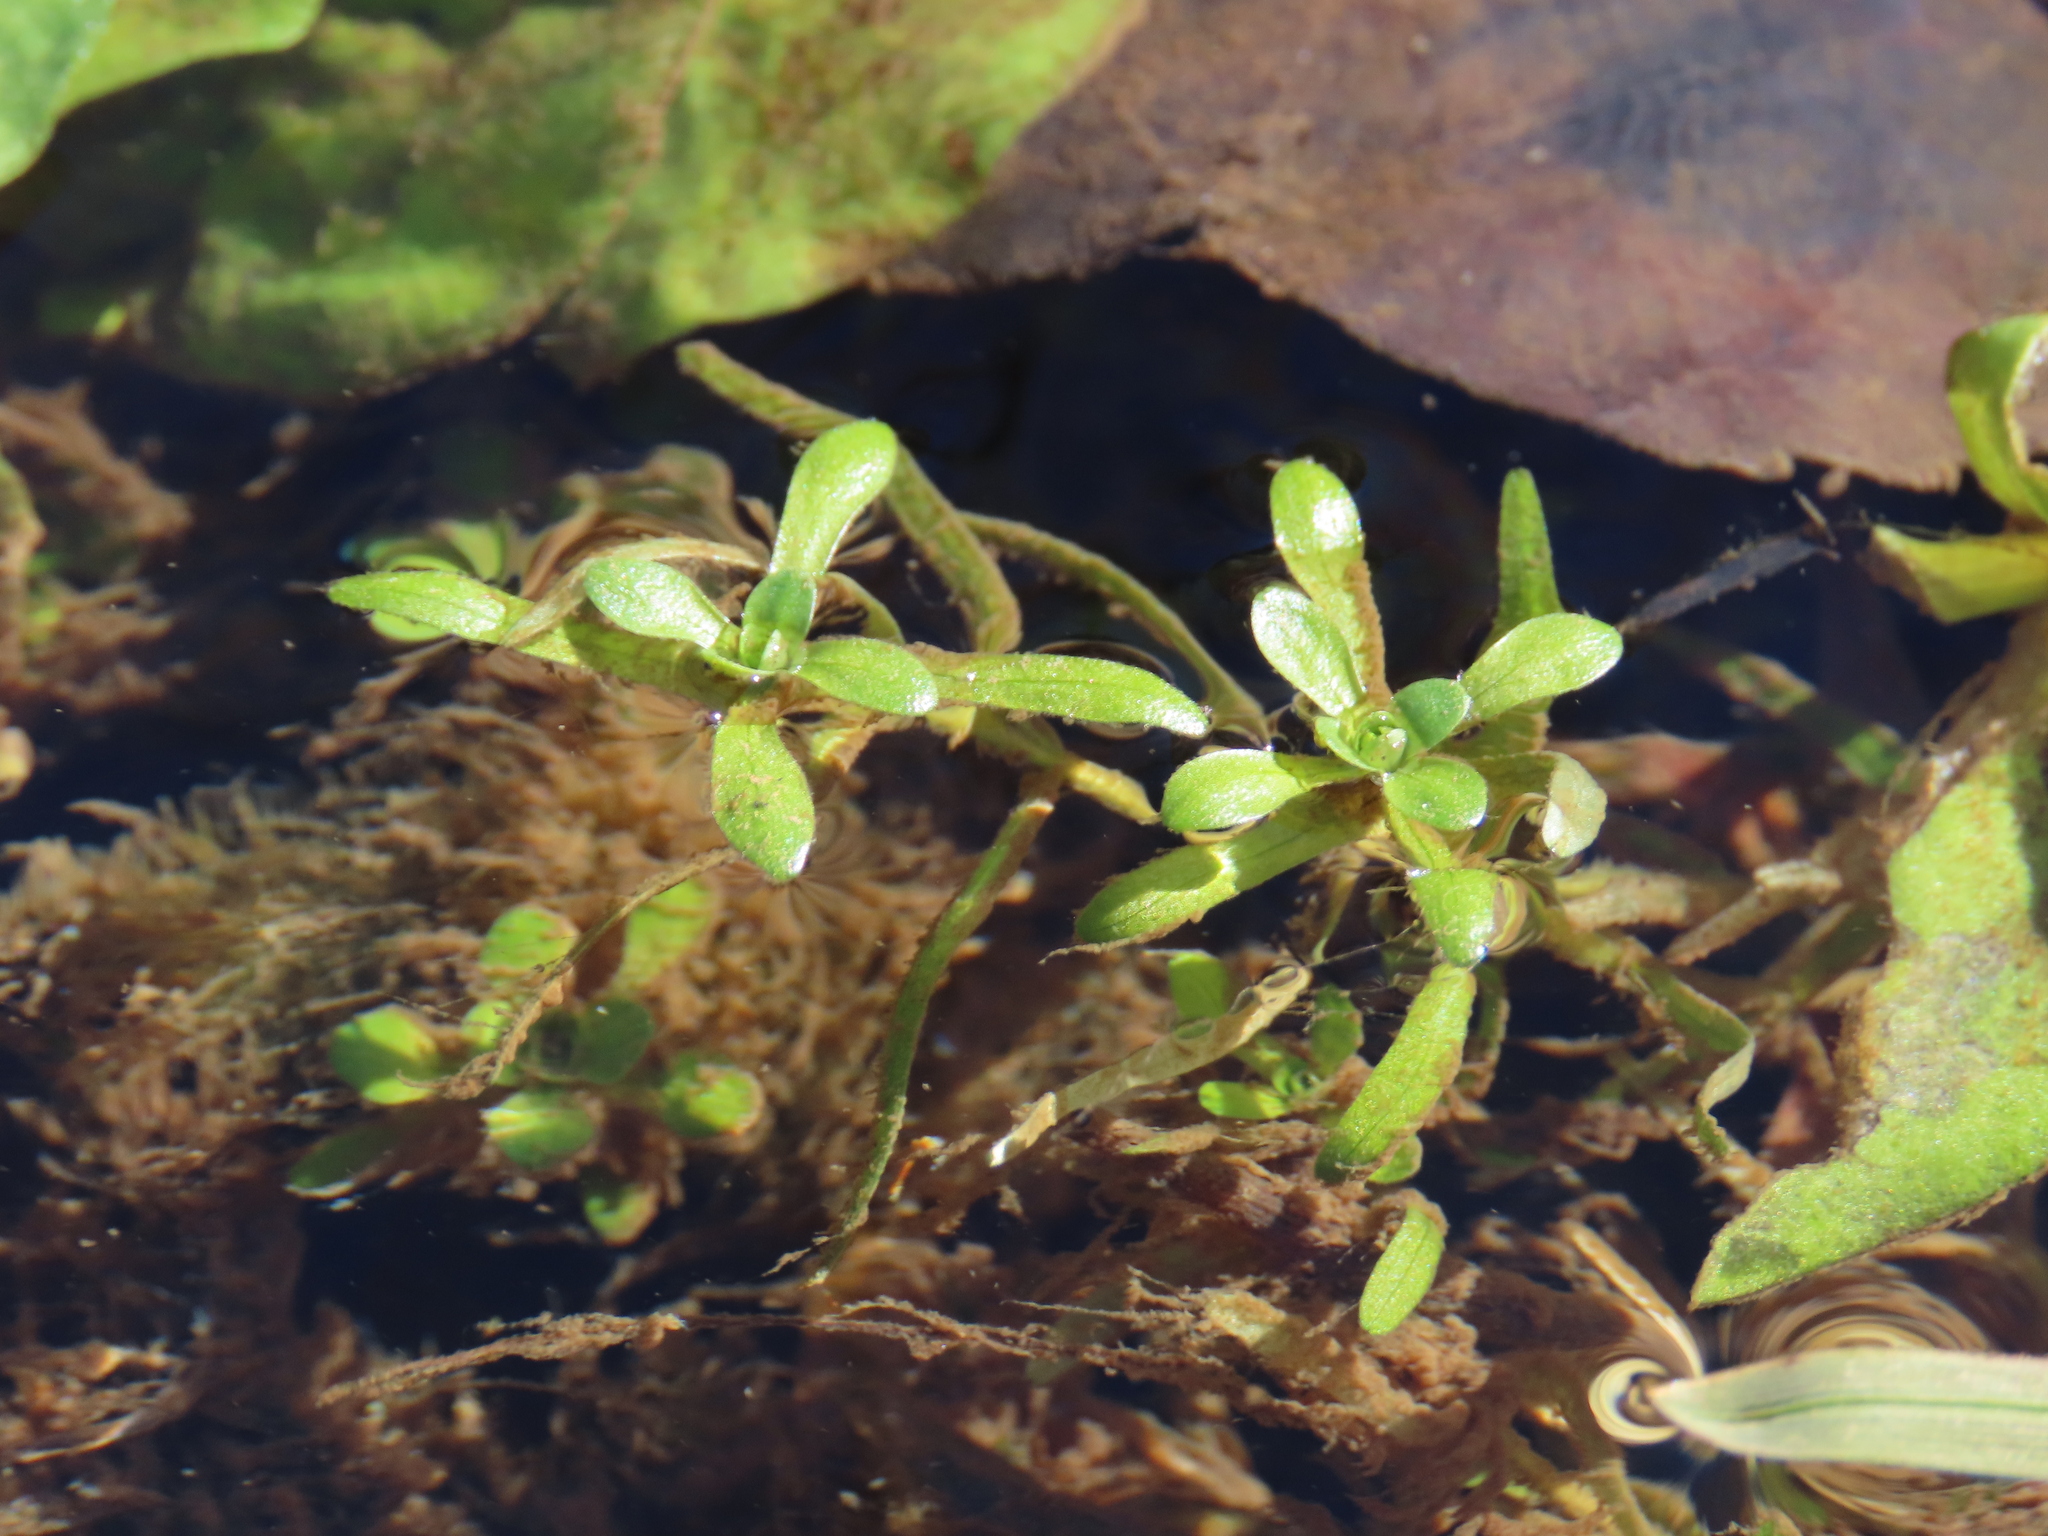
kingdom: Plantae
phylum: Tracheophyta
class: Magnoliopsida
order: Lamiales
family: Plantaginaceae
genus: Callitriche
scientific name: Callitriche stagnalis
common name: Common water-starwort
